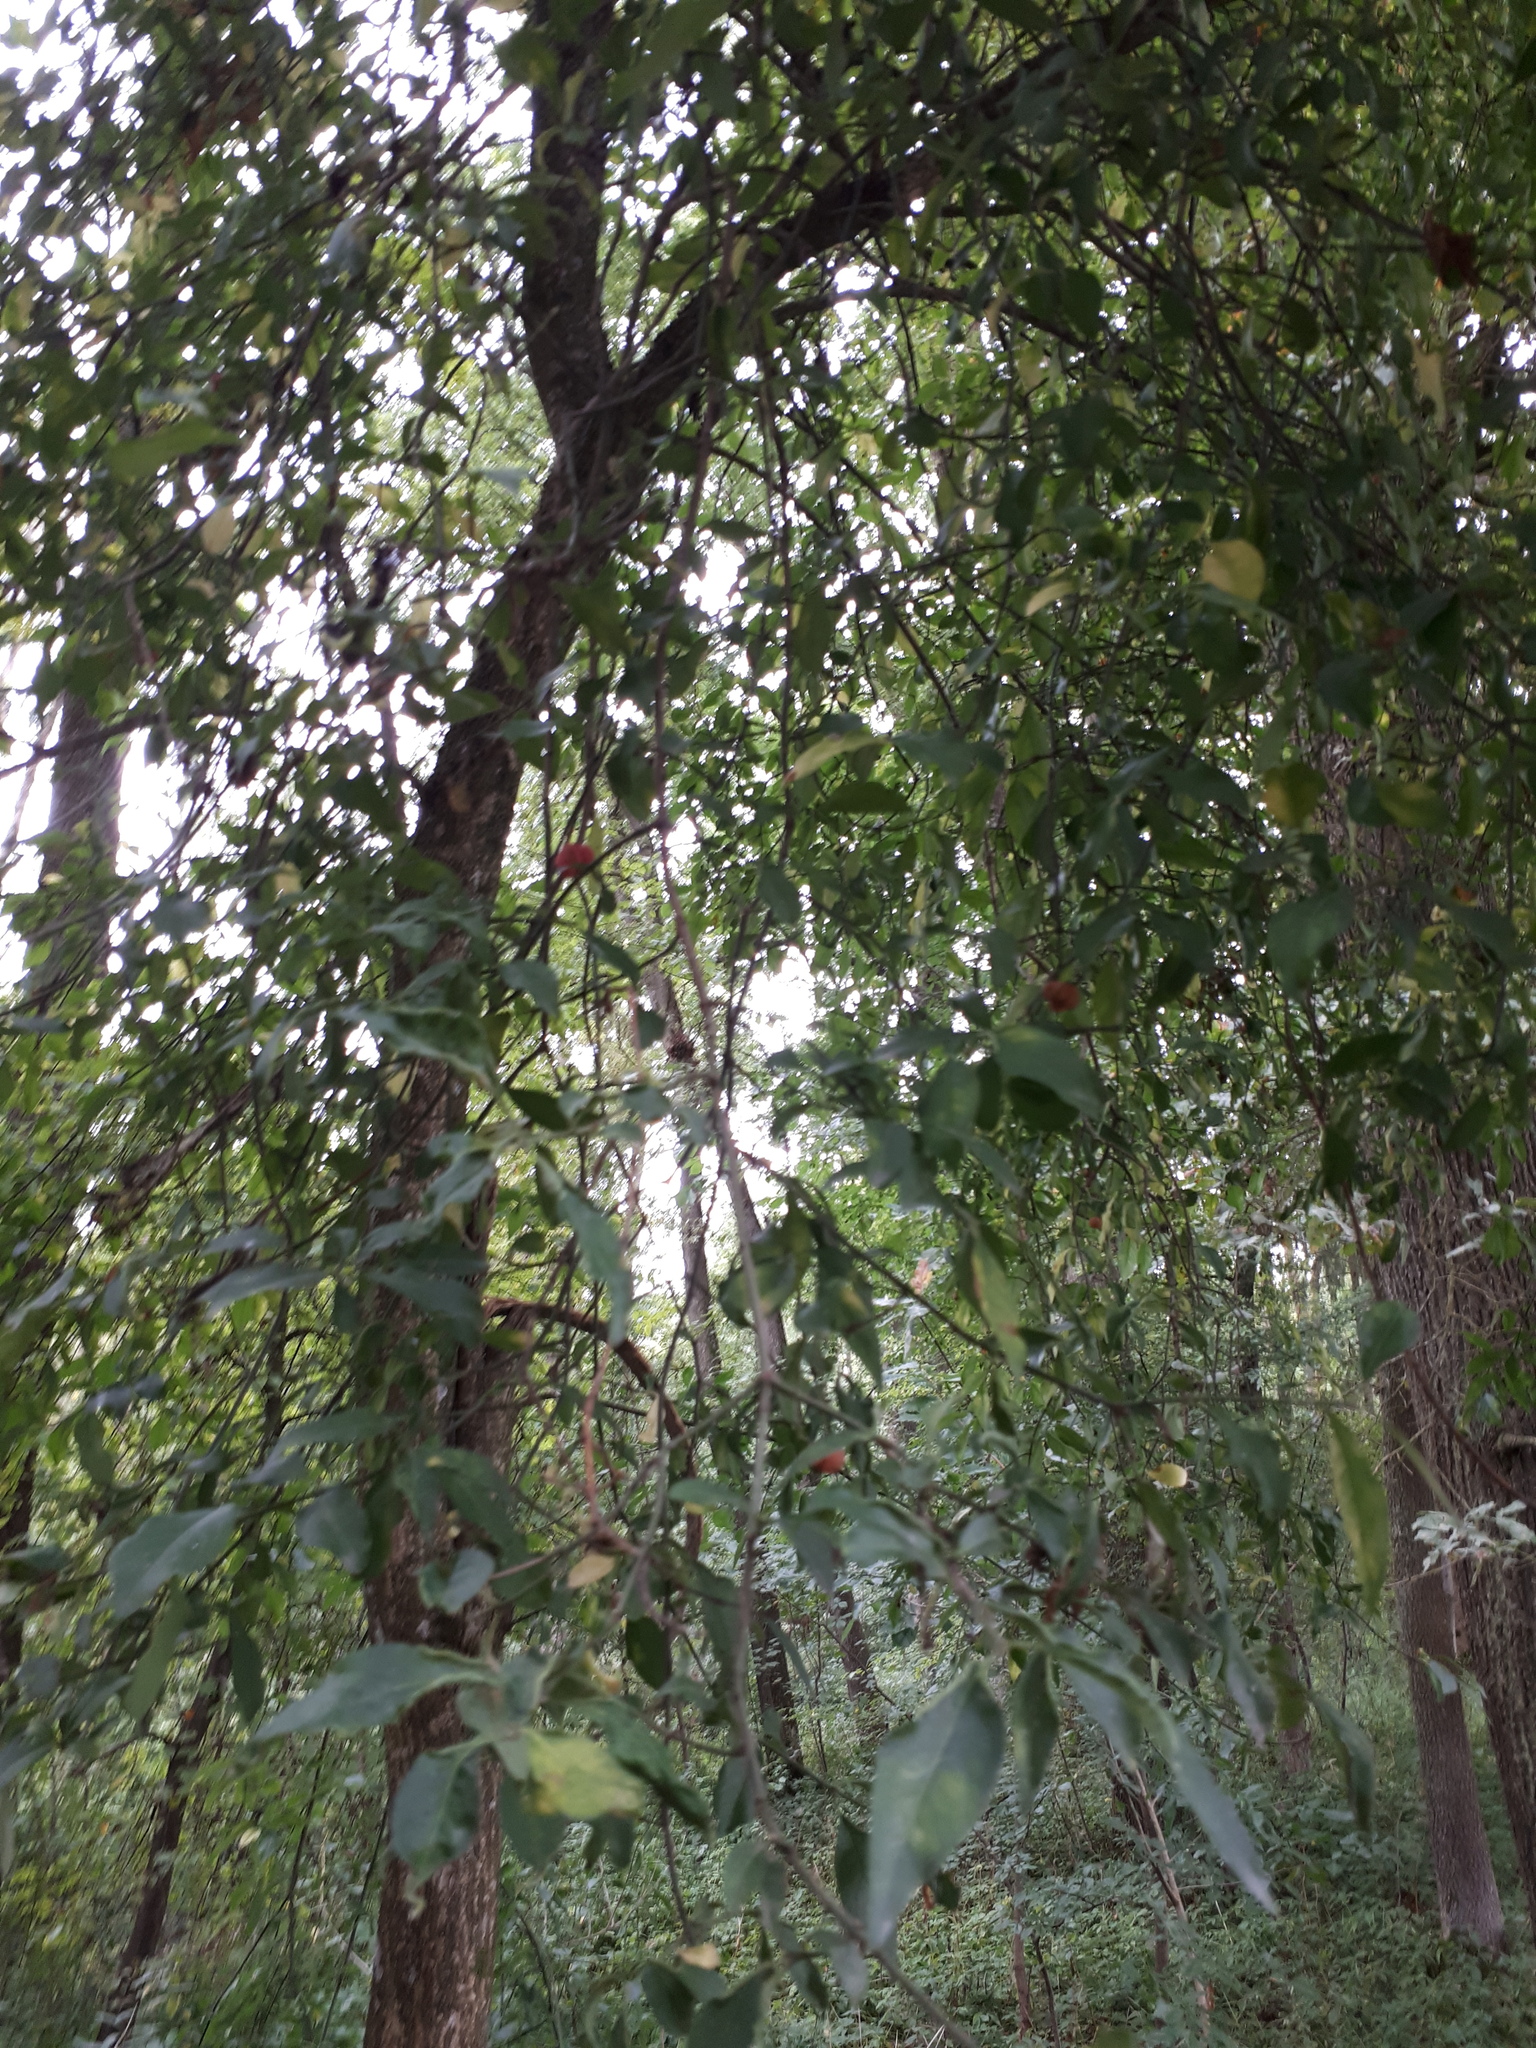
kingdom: Plantae
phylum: Tracheophyta
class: Magnoliopsida
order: Celastrales
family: Celastraceae
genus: Euonymus
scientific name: Euonymus europaeus
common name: Spindle
